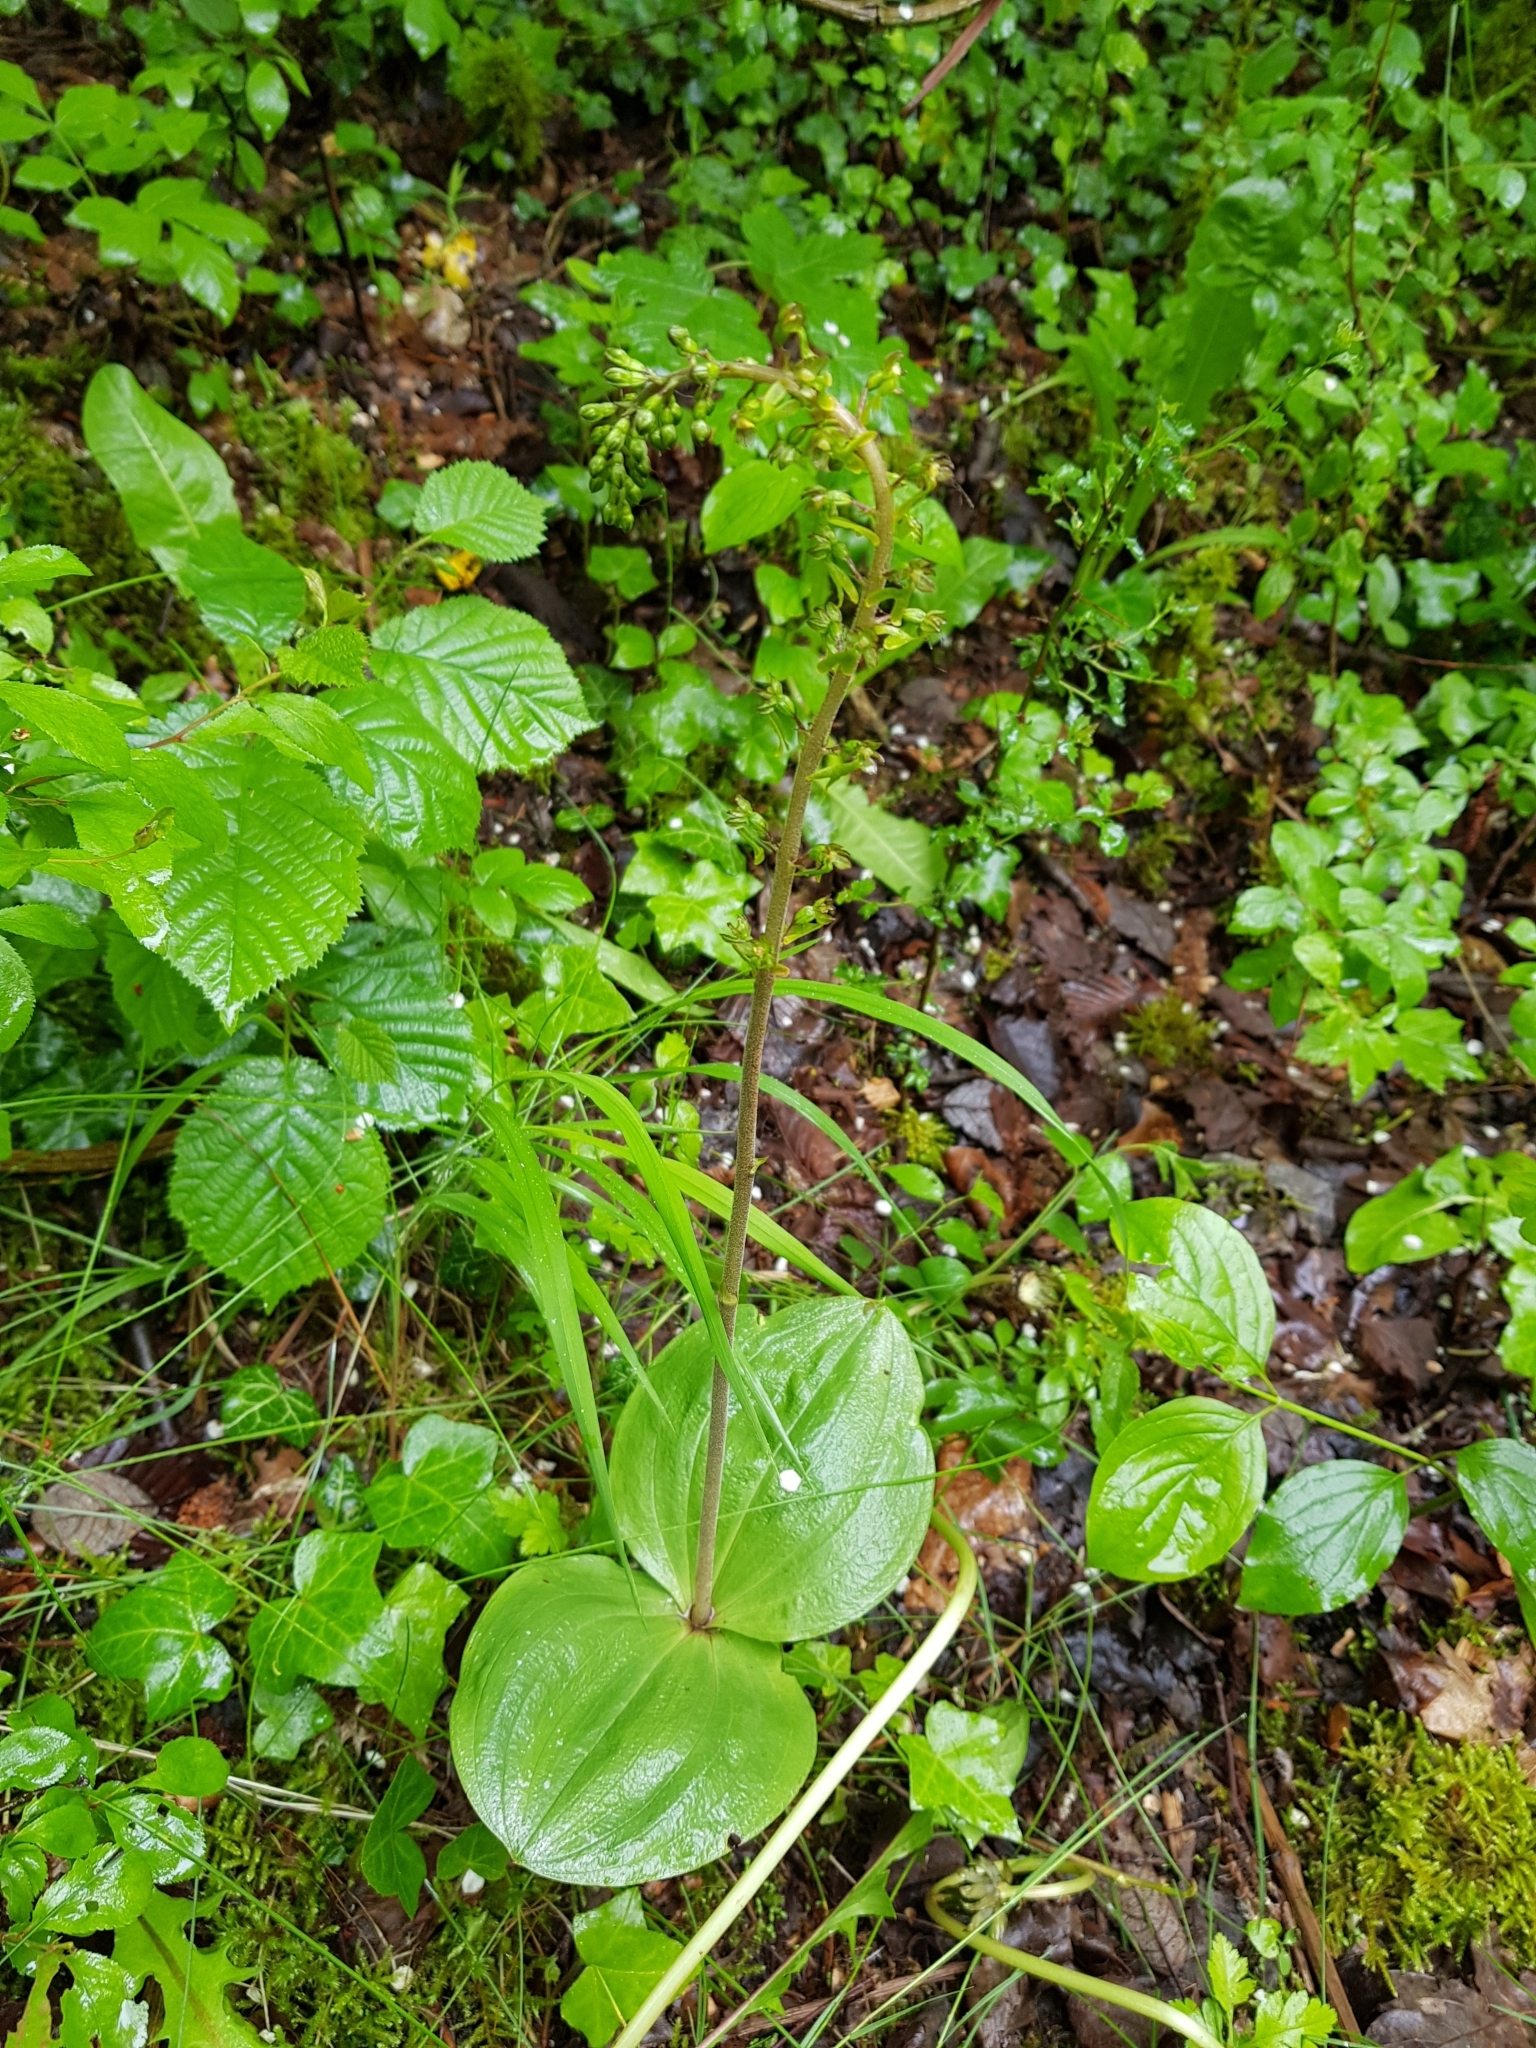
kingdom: Plantae
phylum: Tracheophyta
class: Liliopsida
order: Asparagales
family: Orchidaceae
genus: Neottia
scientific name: Neottia ovata
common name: Common twayblade
